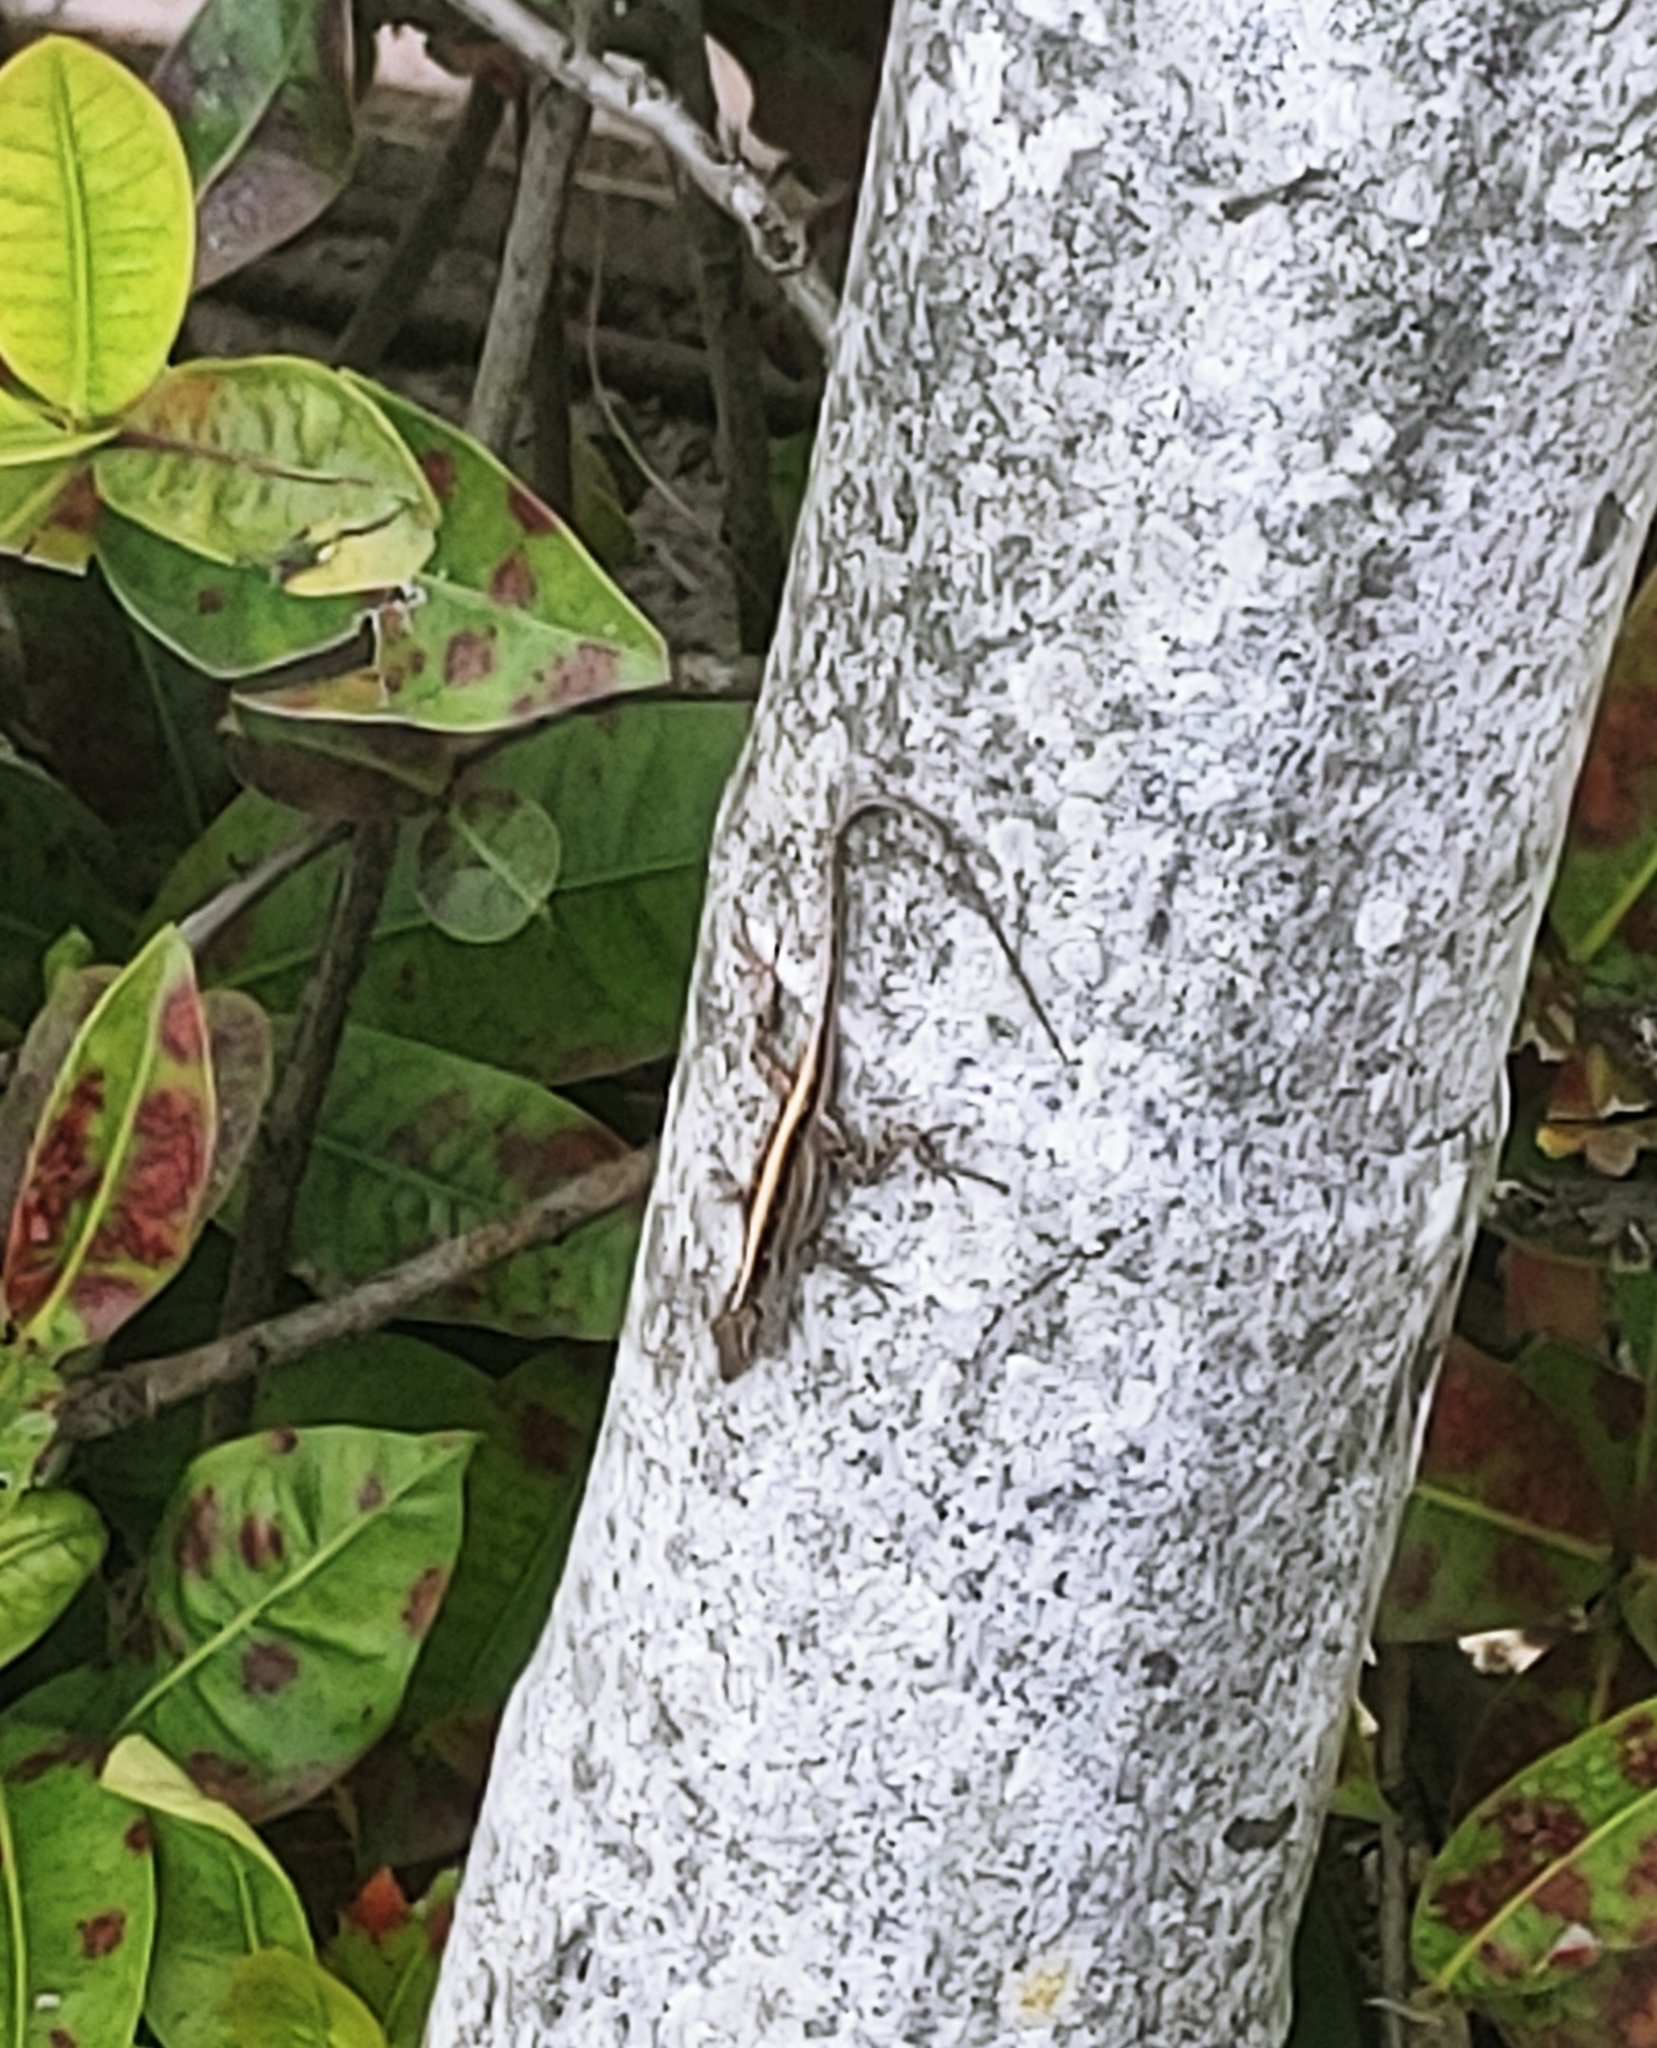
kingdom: Animalia
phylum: Chordata
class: Squamata
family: Dactyloidae
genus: Anolis
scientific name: Anolis sagrei
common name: Brown anole
